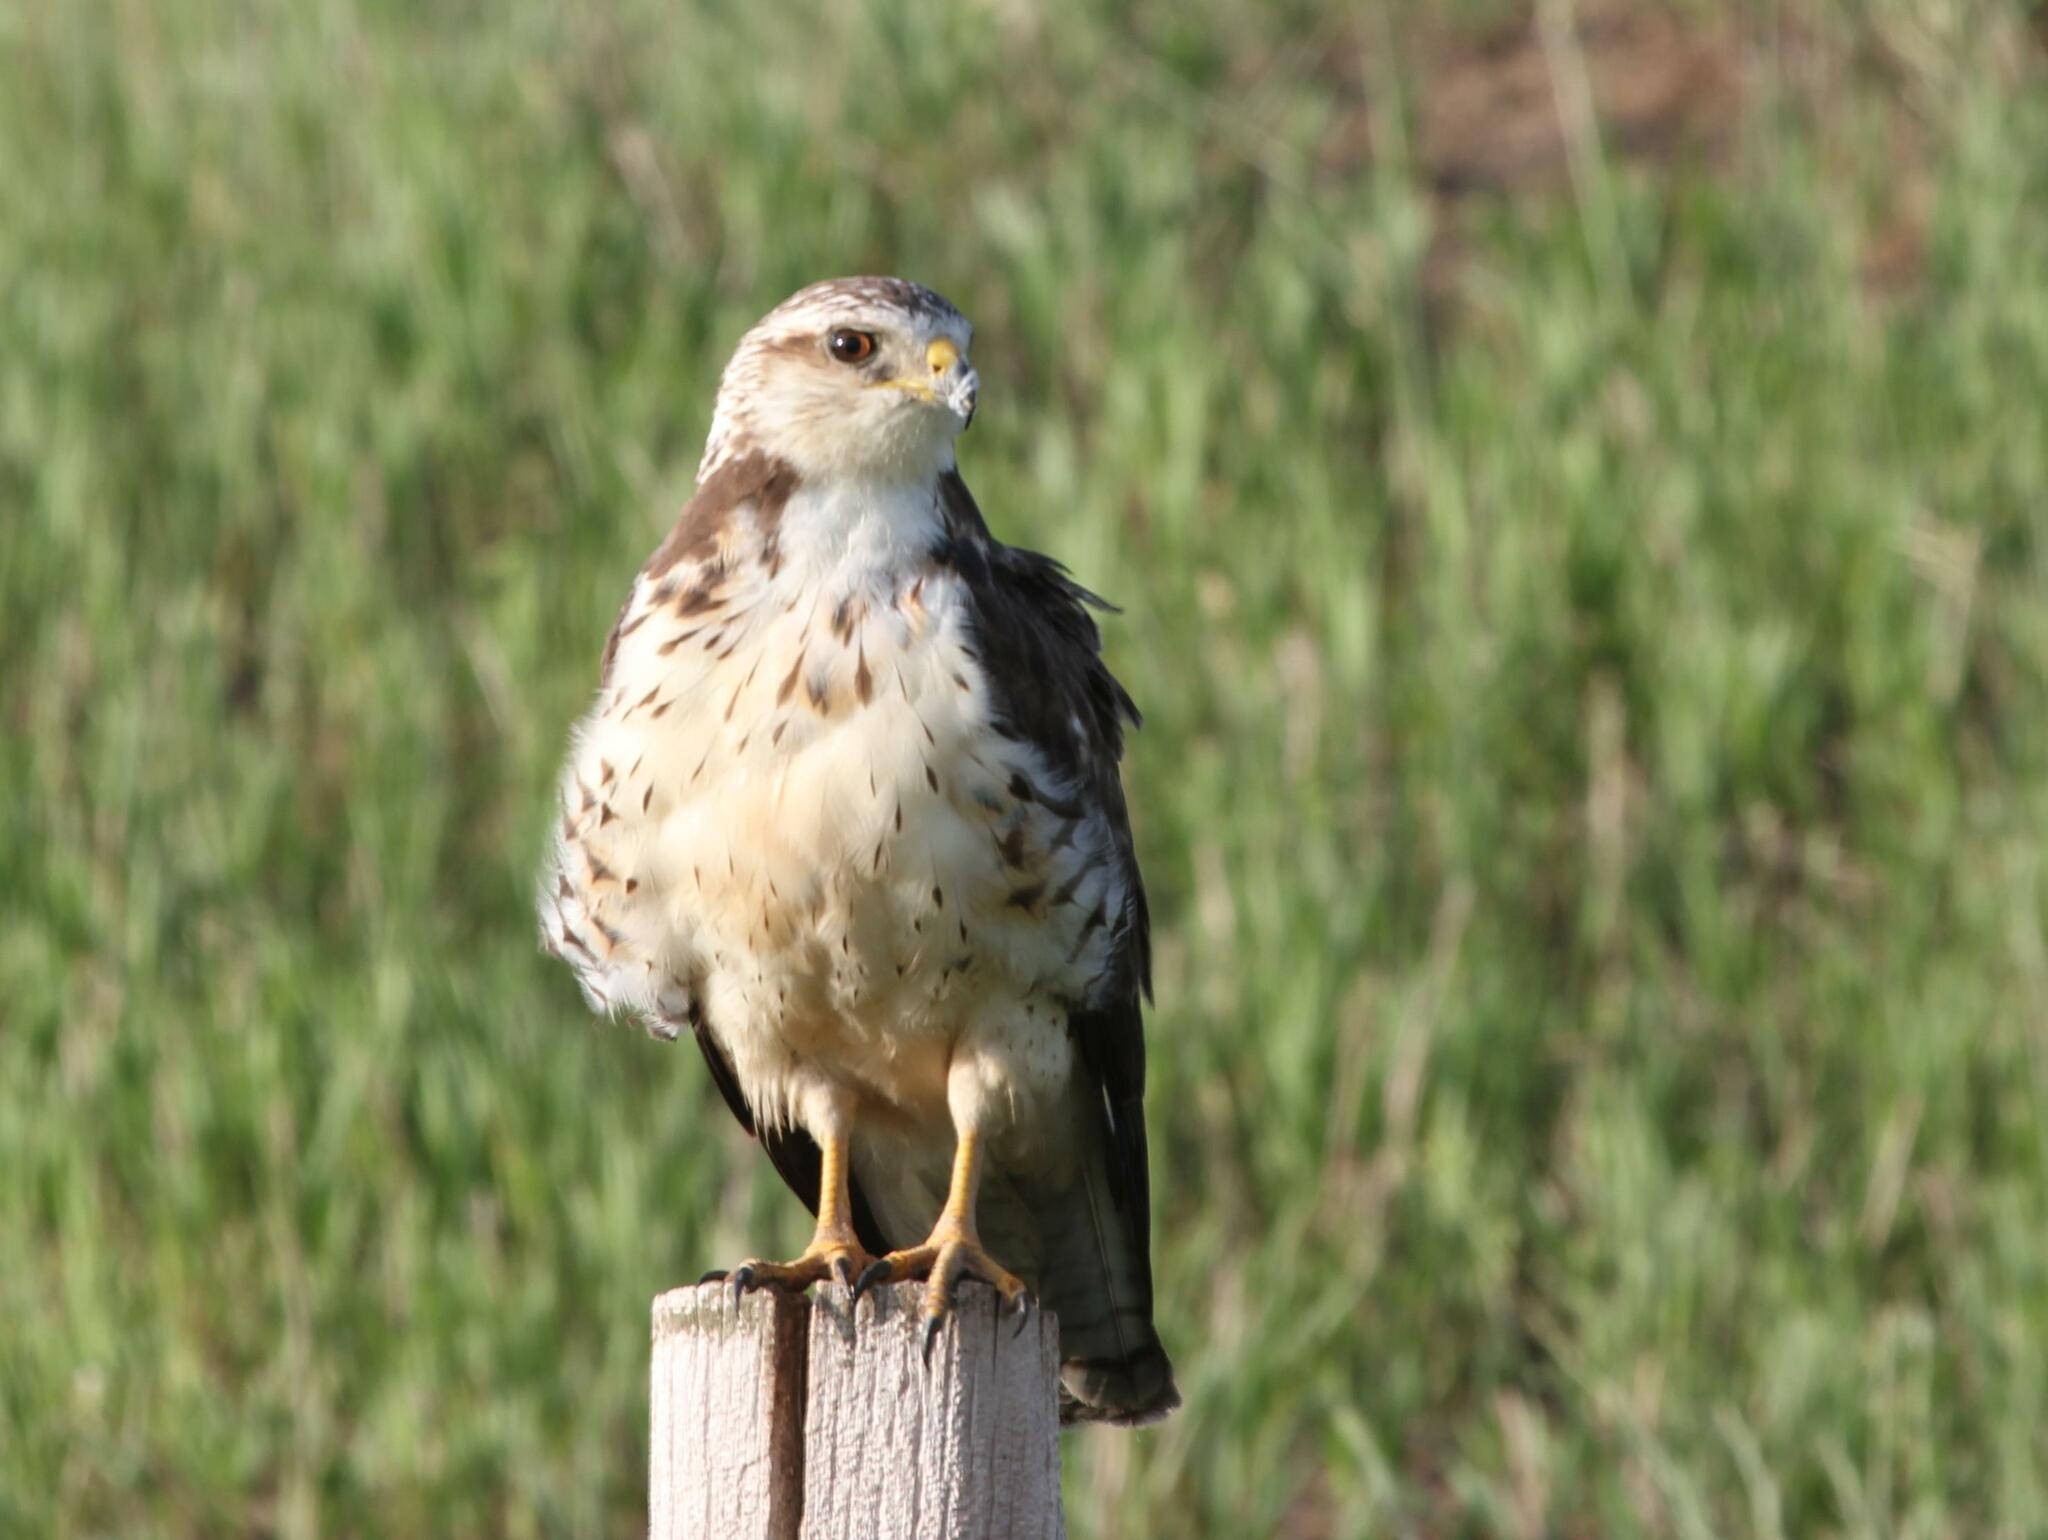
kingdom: Animalia
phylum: Chordata
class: Aves
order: Accipitriformes
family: Accipitridae
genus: Buteo
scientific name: Buteo swainsoni
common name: Swainson's hawk
